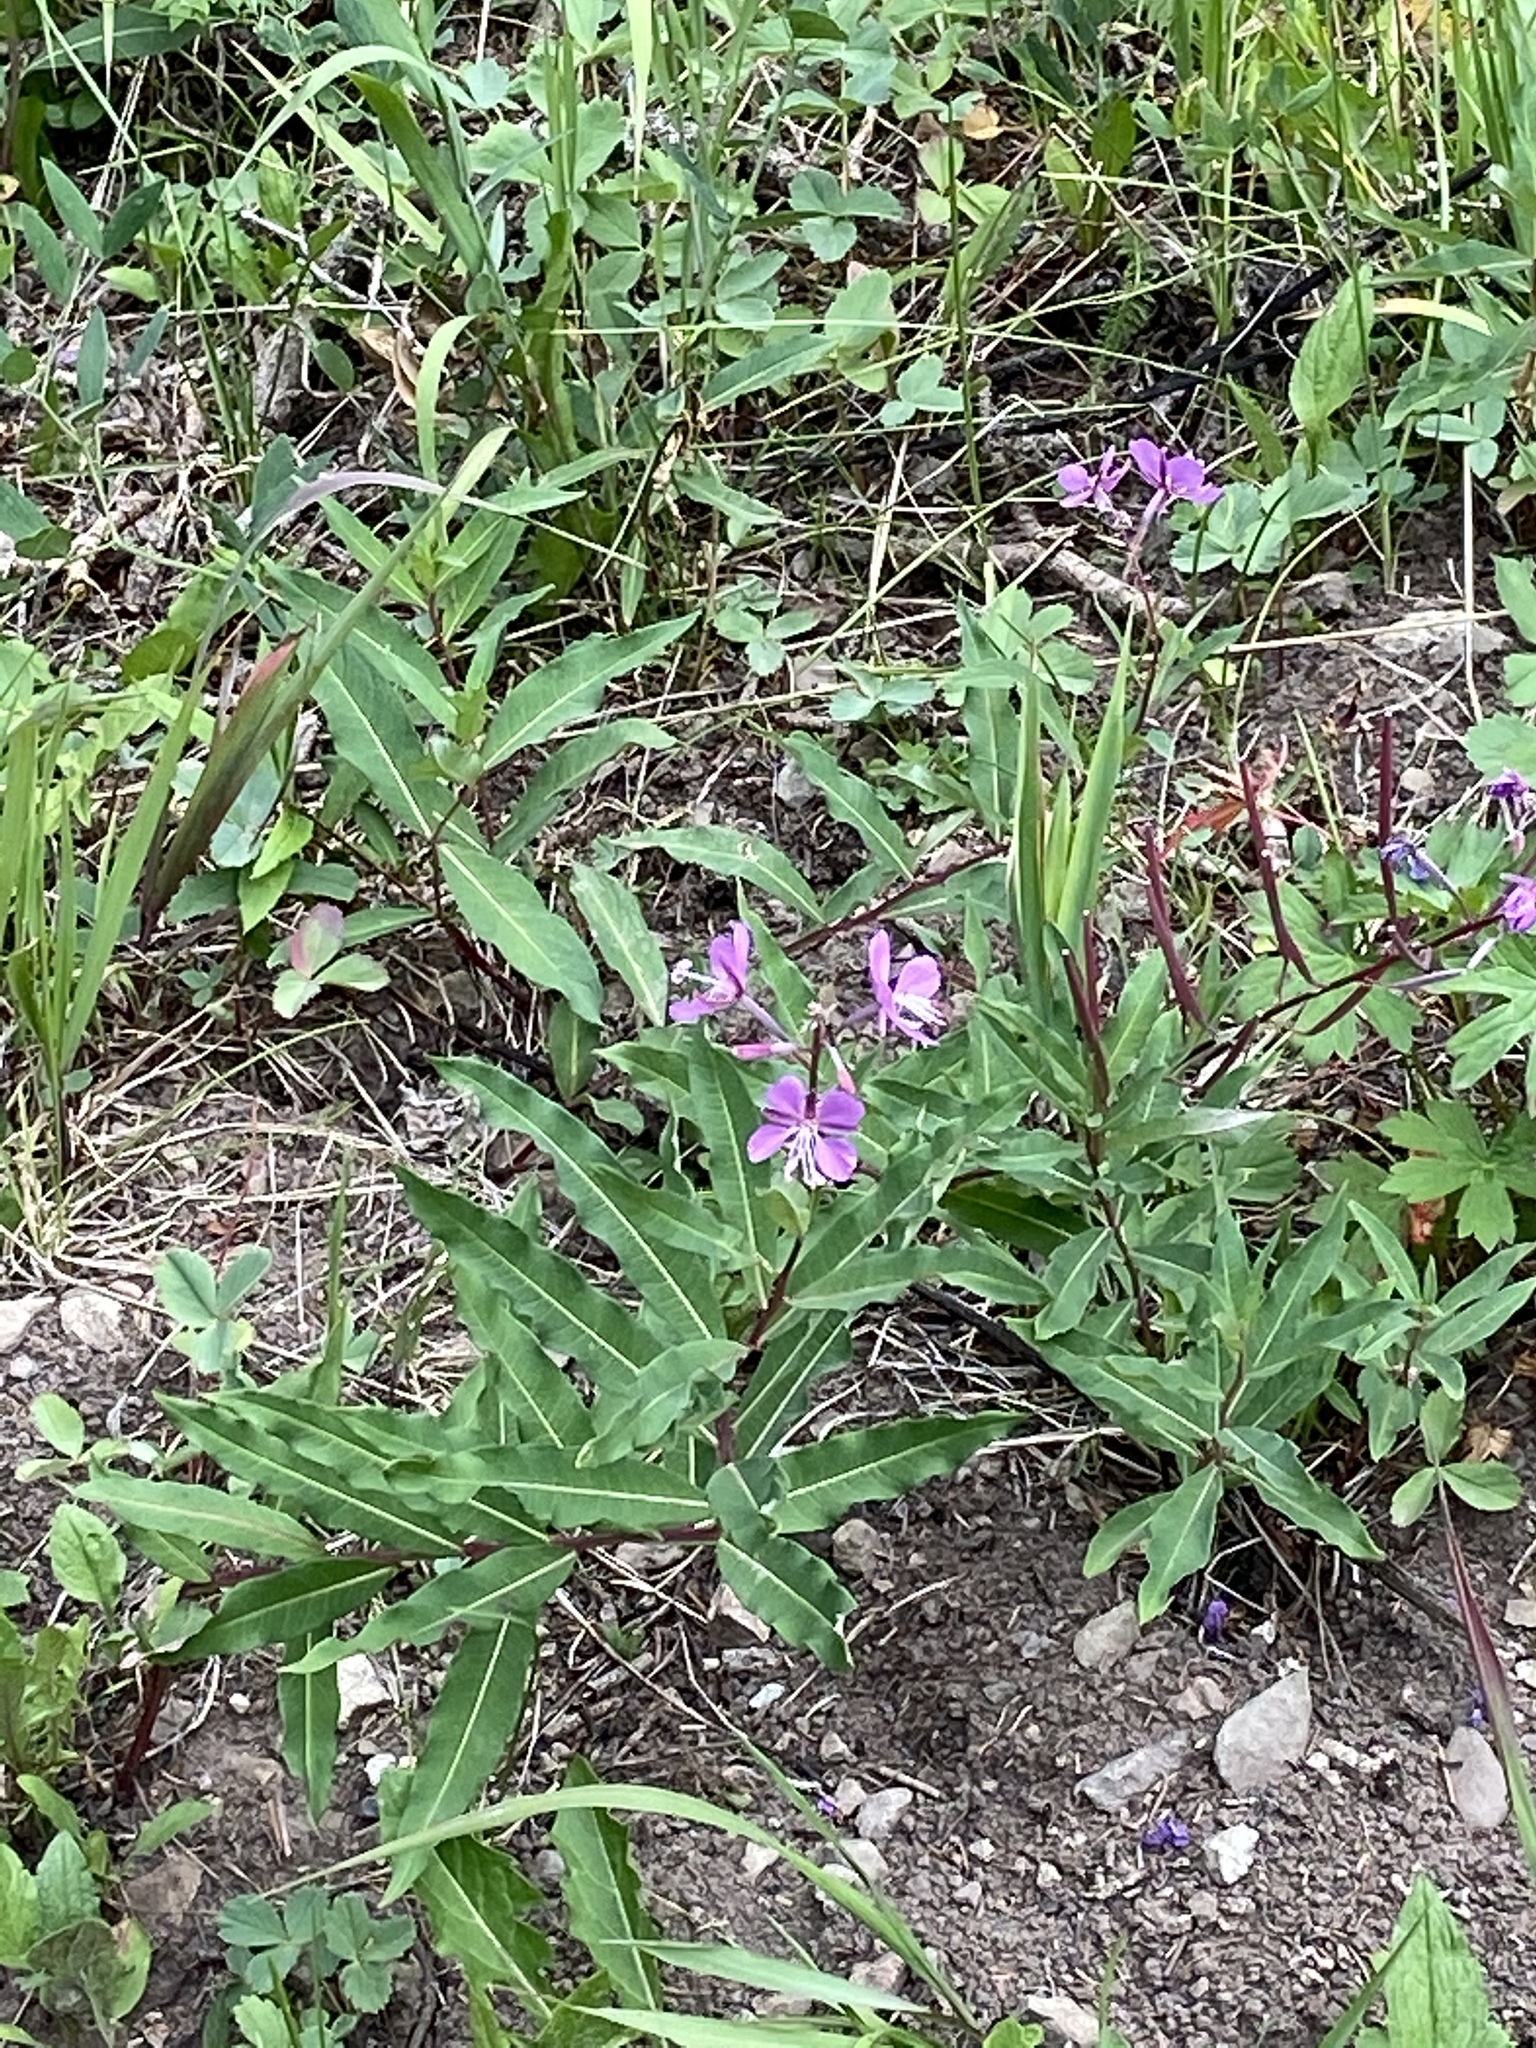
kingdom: Plantae
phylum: Tracheophyta
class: Magnoliopsida
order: Myrtales
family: Onagraceae
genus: Chamaenerion
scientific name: Chamaenerion angustifolium
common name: Fireweed
